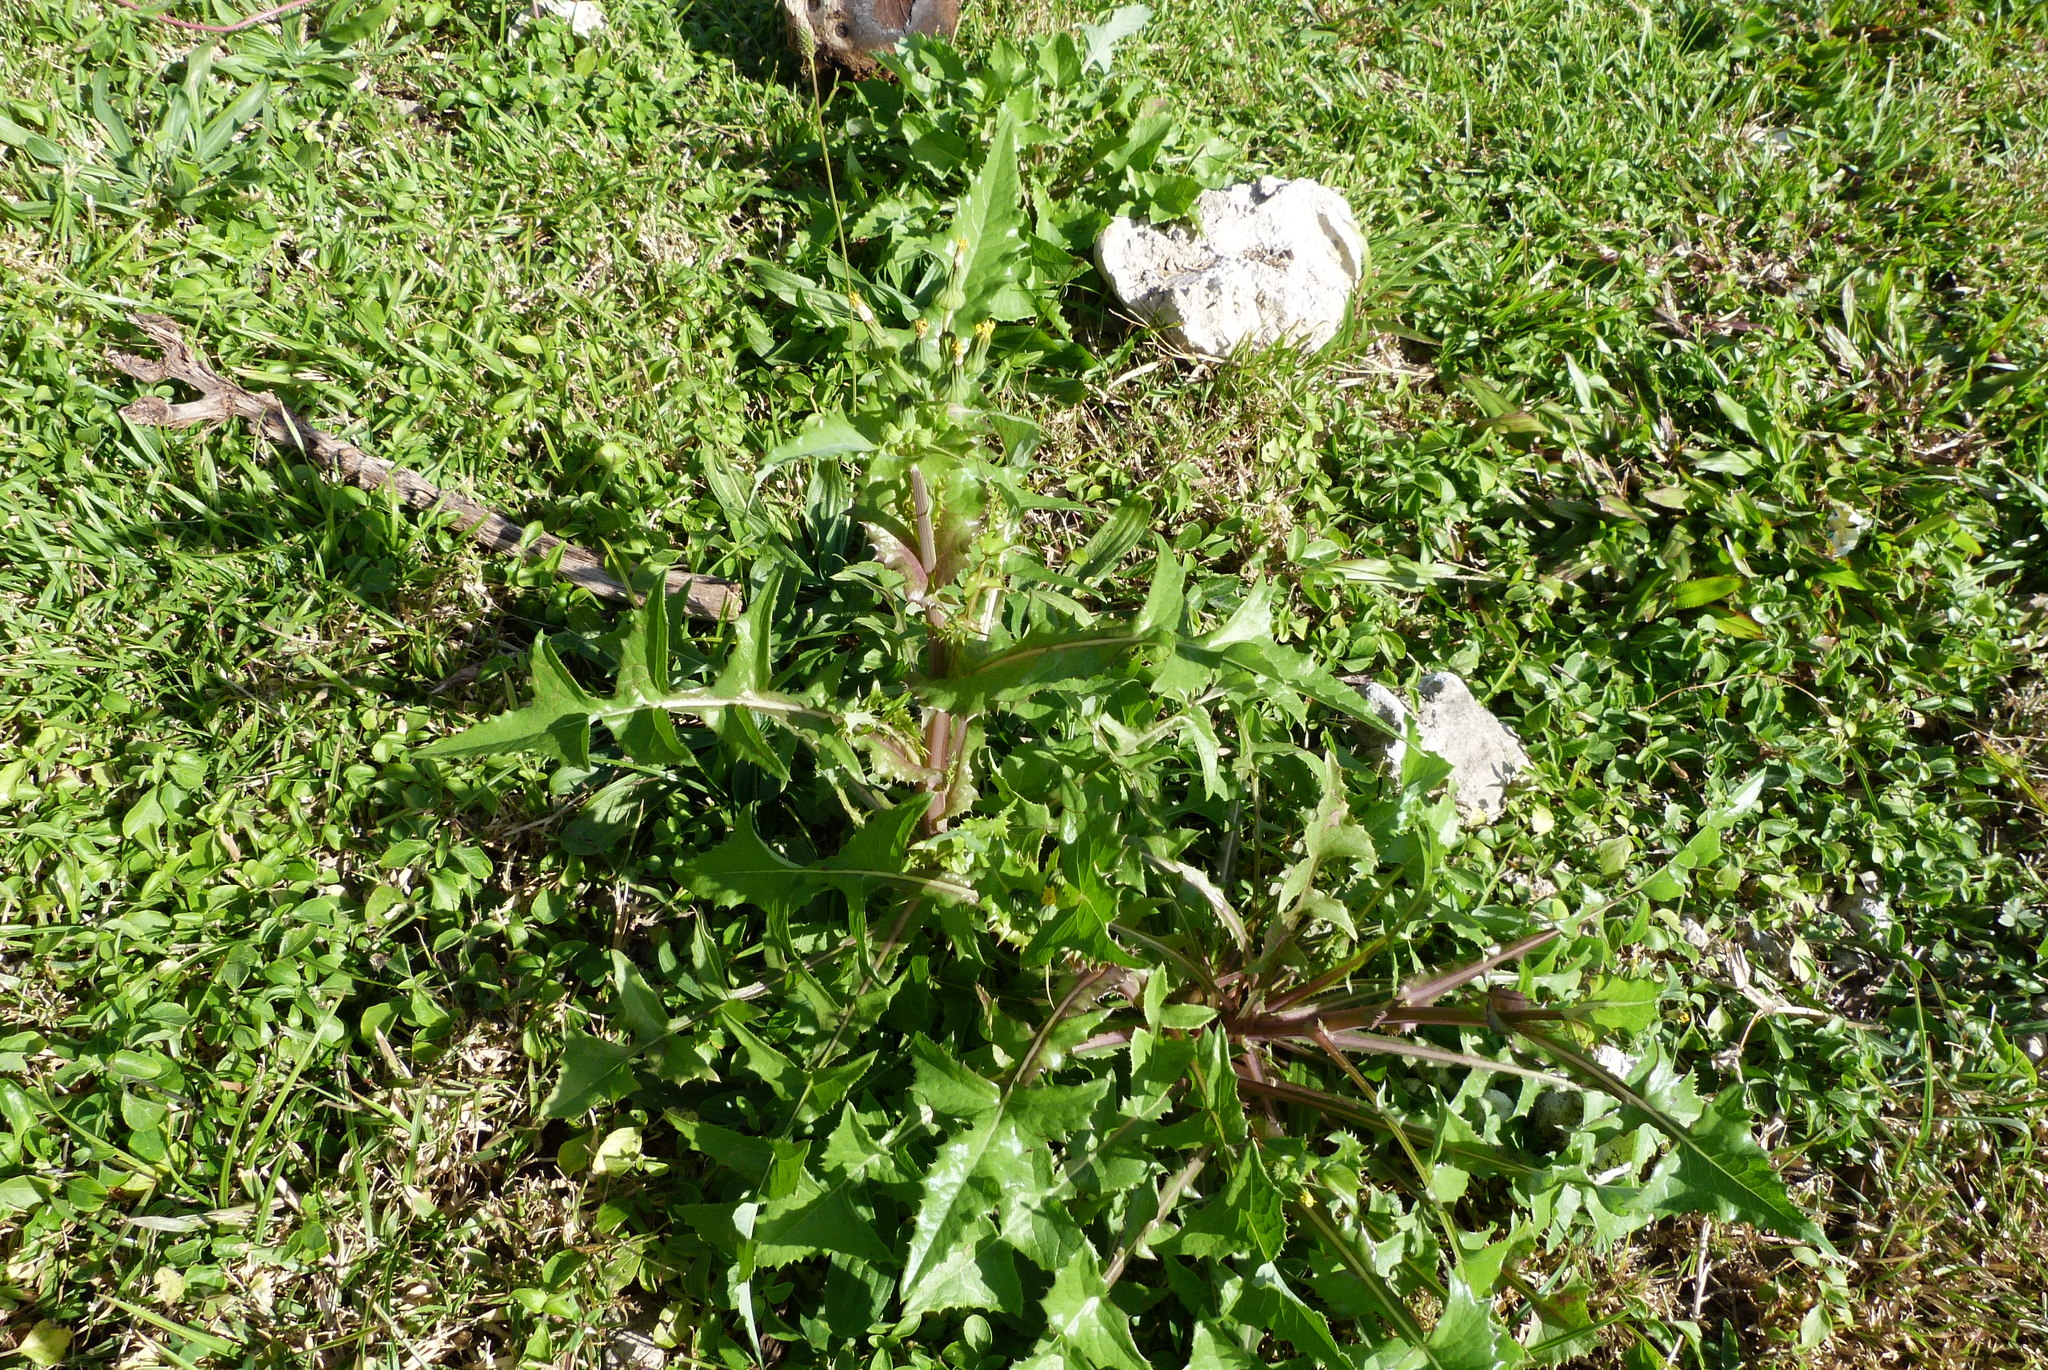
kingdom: Plantae
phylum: Tracheophyta
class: Magnoliopsida
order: Asterales
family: Asteraceae
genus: Sonchus
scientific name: Sonchus asper
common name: Prickly sow-thistle
